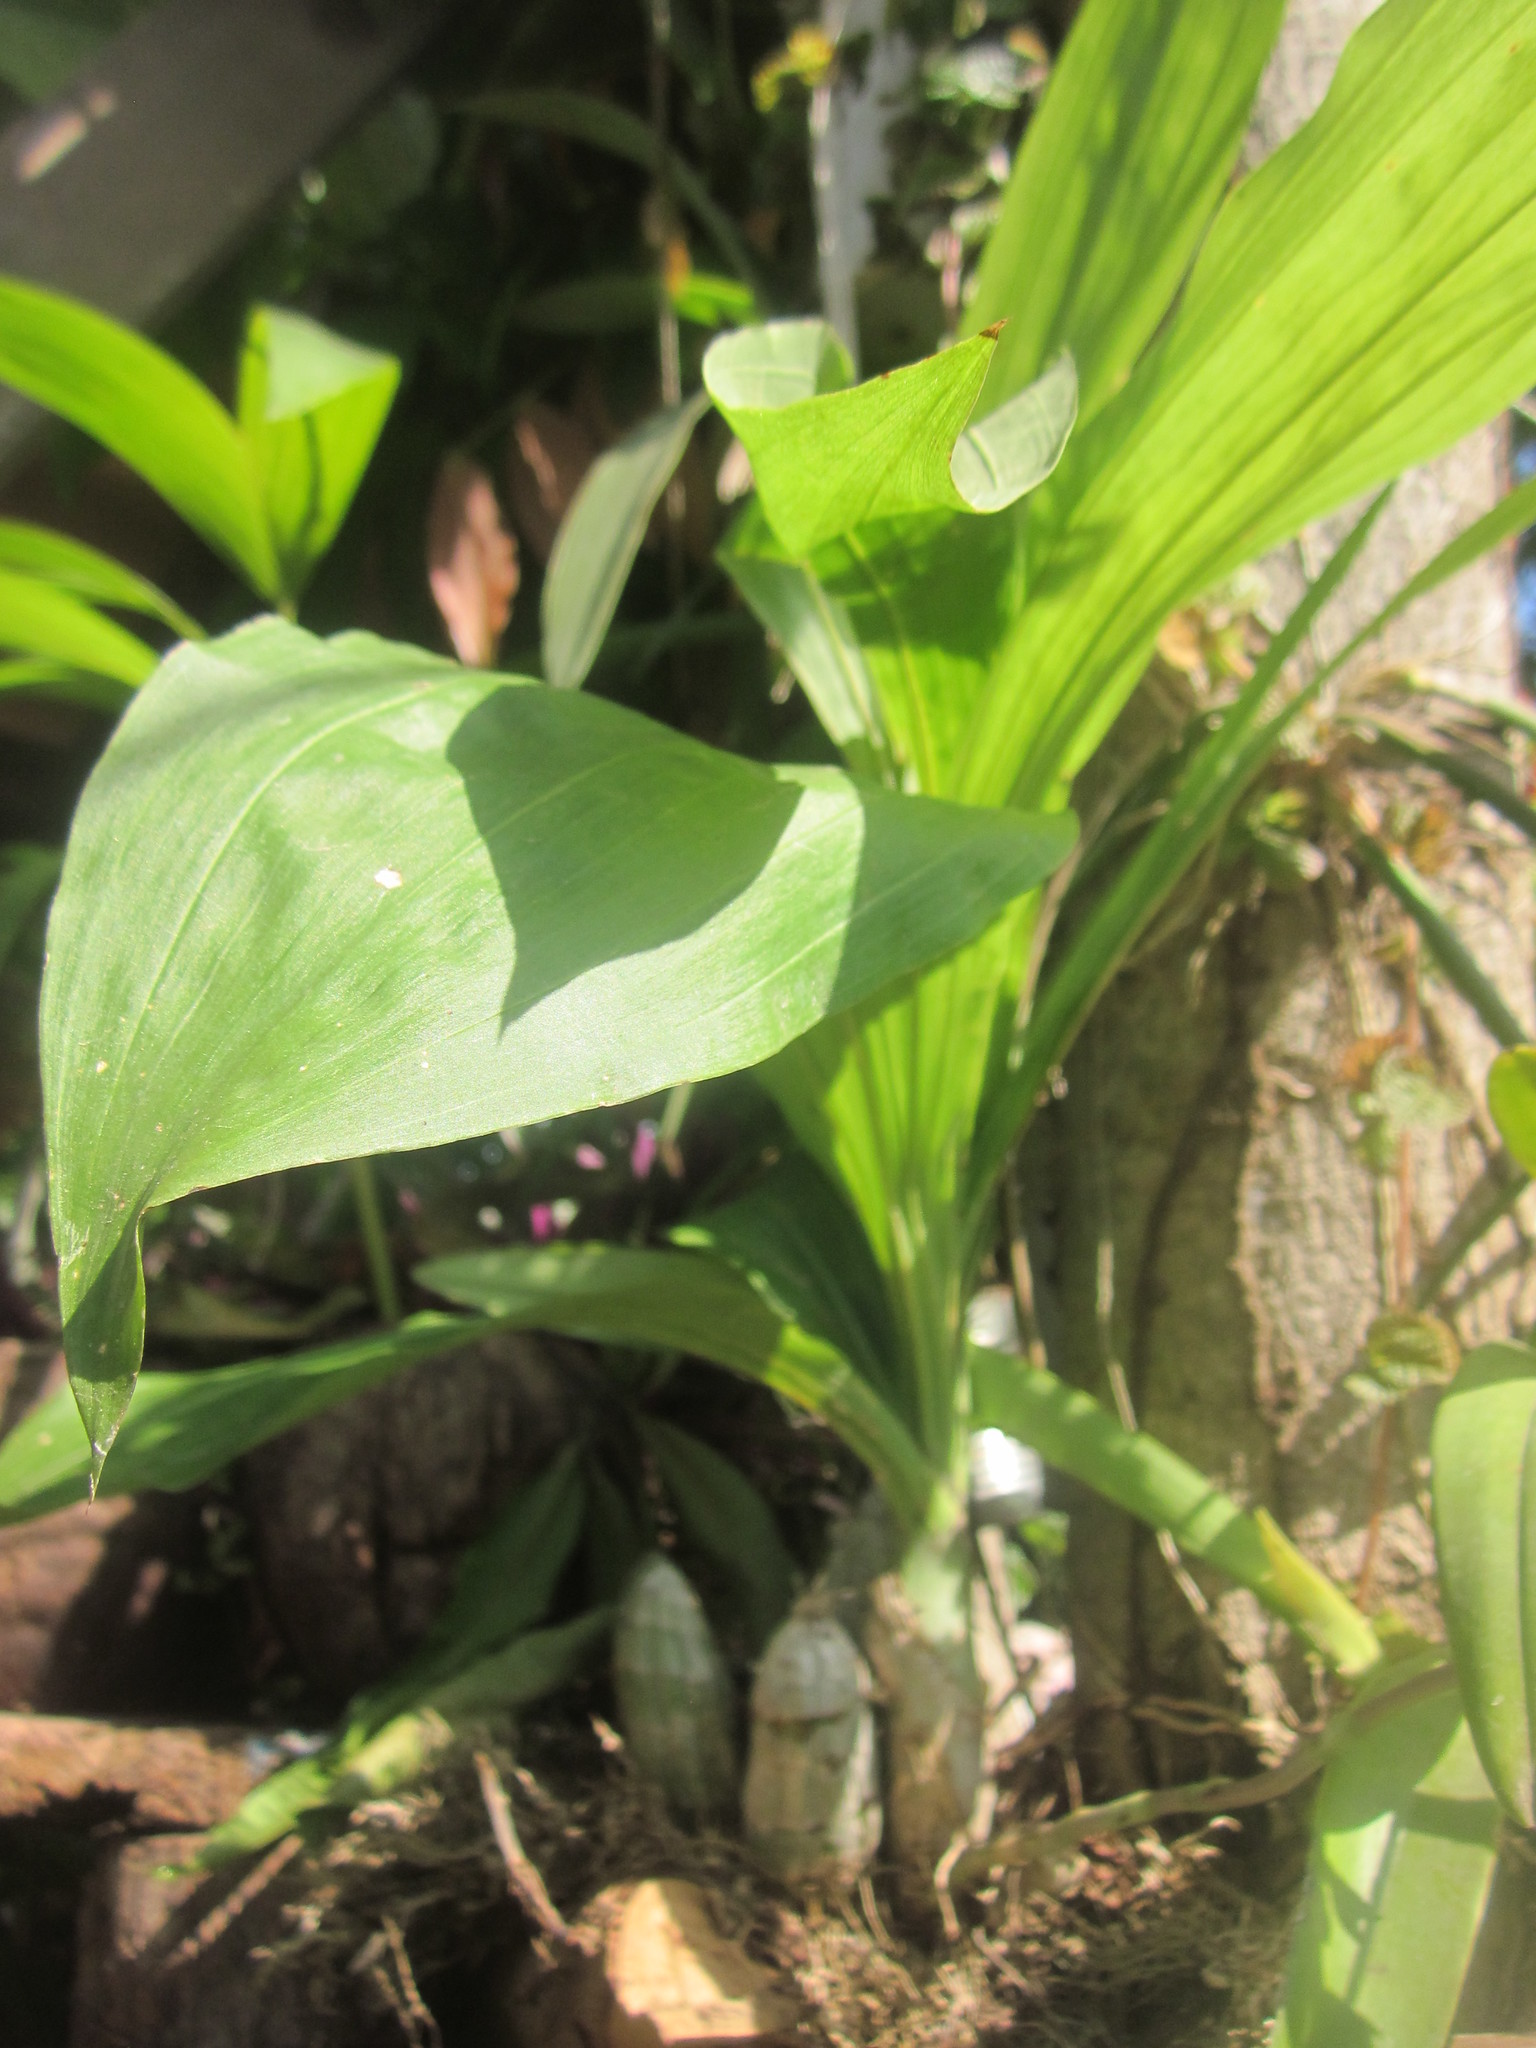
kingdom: Plantae
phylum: Tracheophyta
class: Liliopsida
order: Asparagales
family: Orchidaceae
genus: Catasetum
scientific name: Catasetum laminatum
